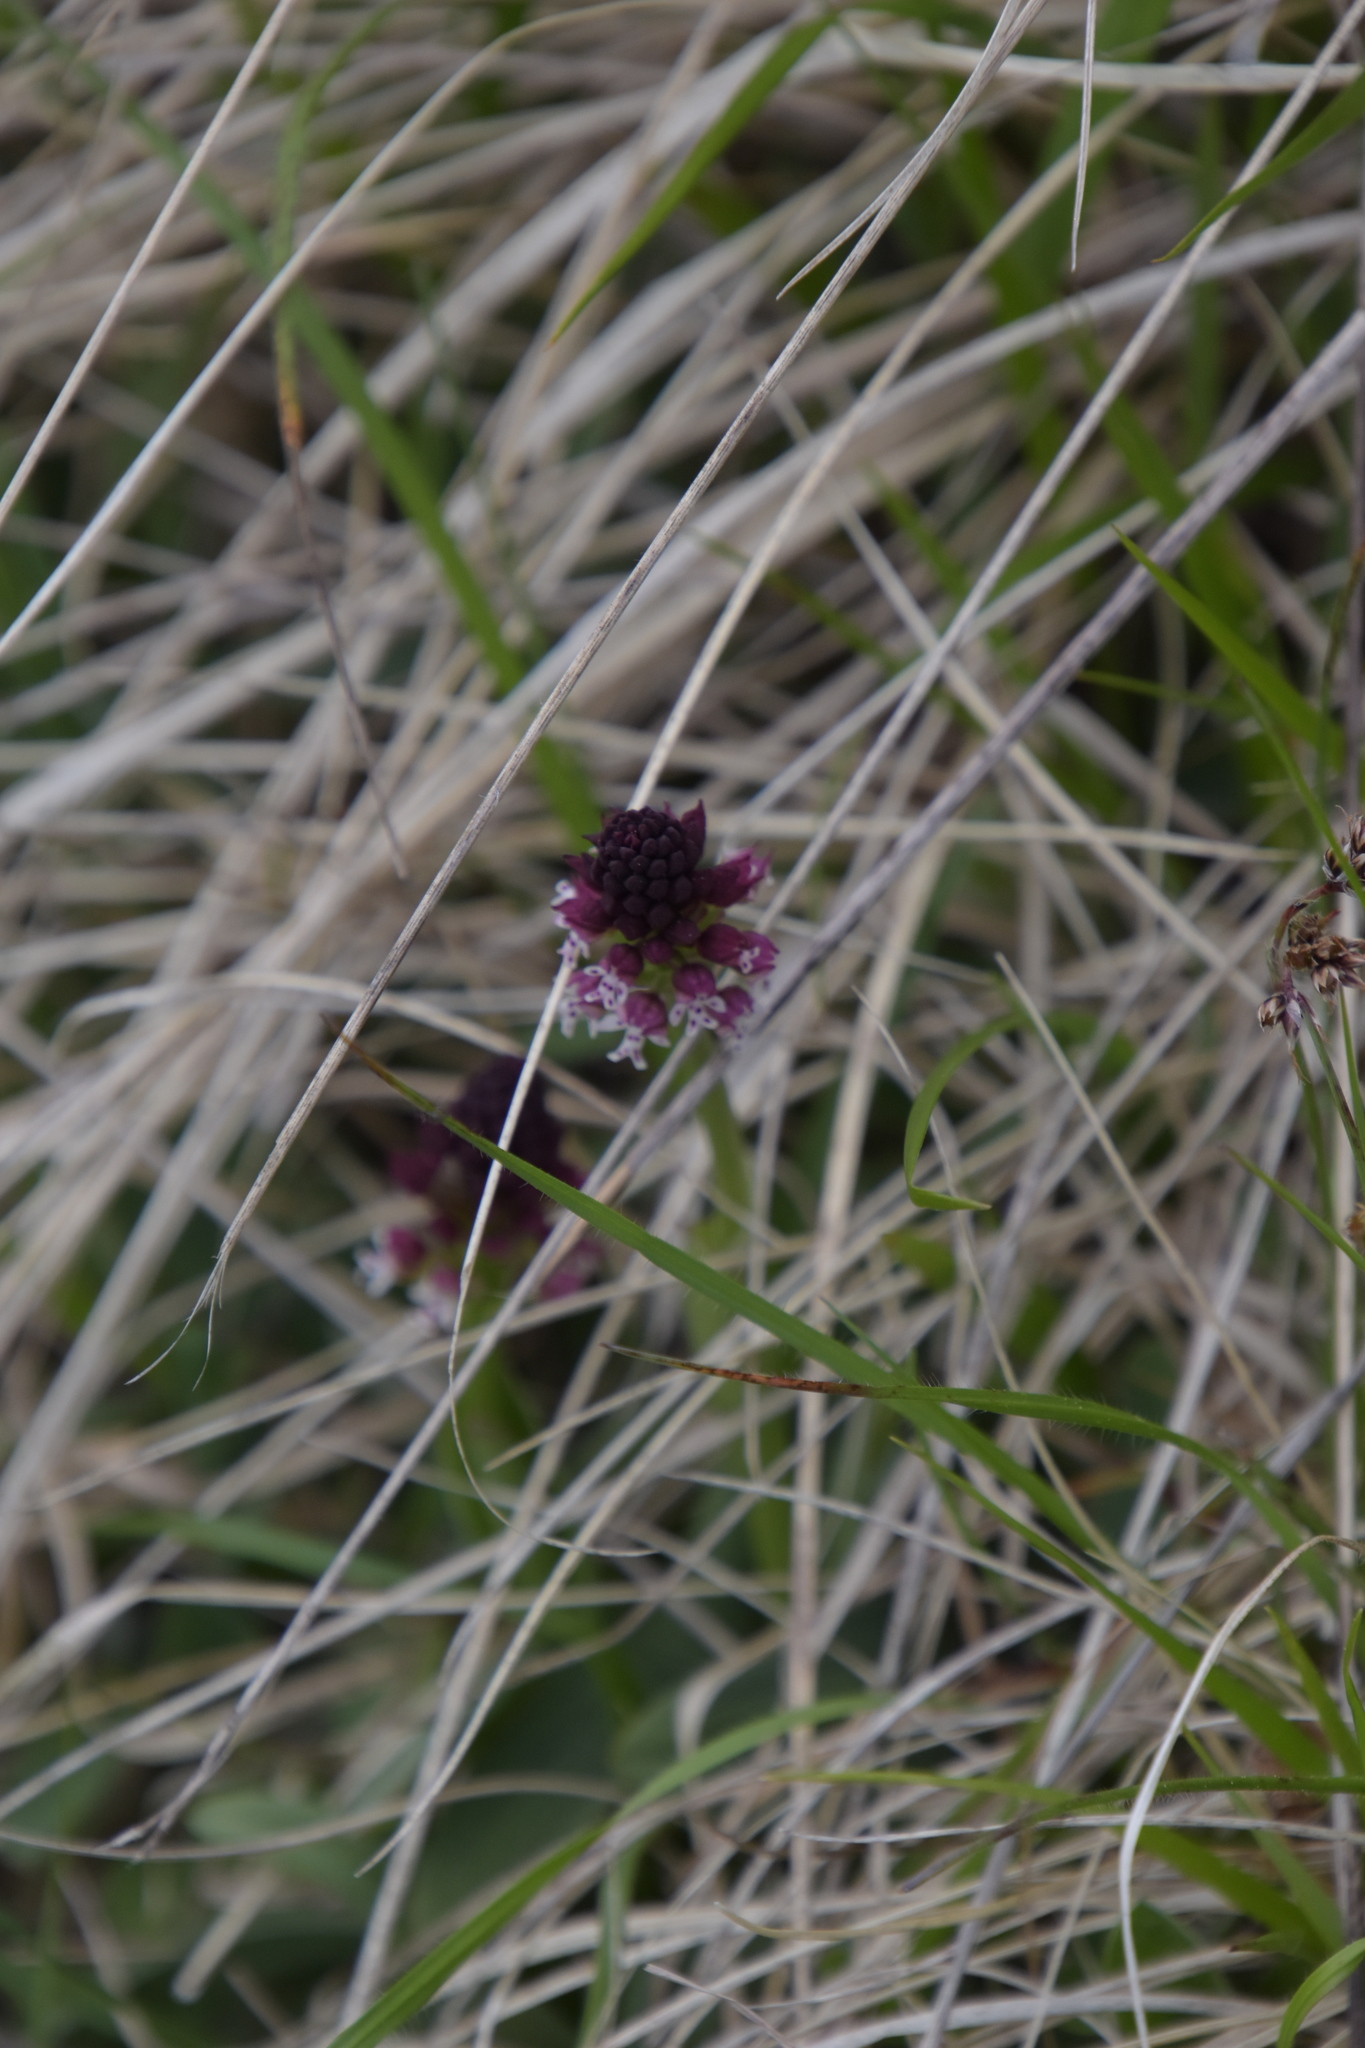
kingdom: Plantae
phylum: Tracheophyta
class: Liliopsida
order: Asparagales
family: Orchidaceae
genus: Neotinea
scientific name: Neotinea ustulata
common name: Burnt orchid
